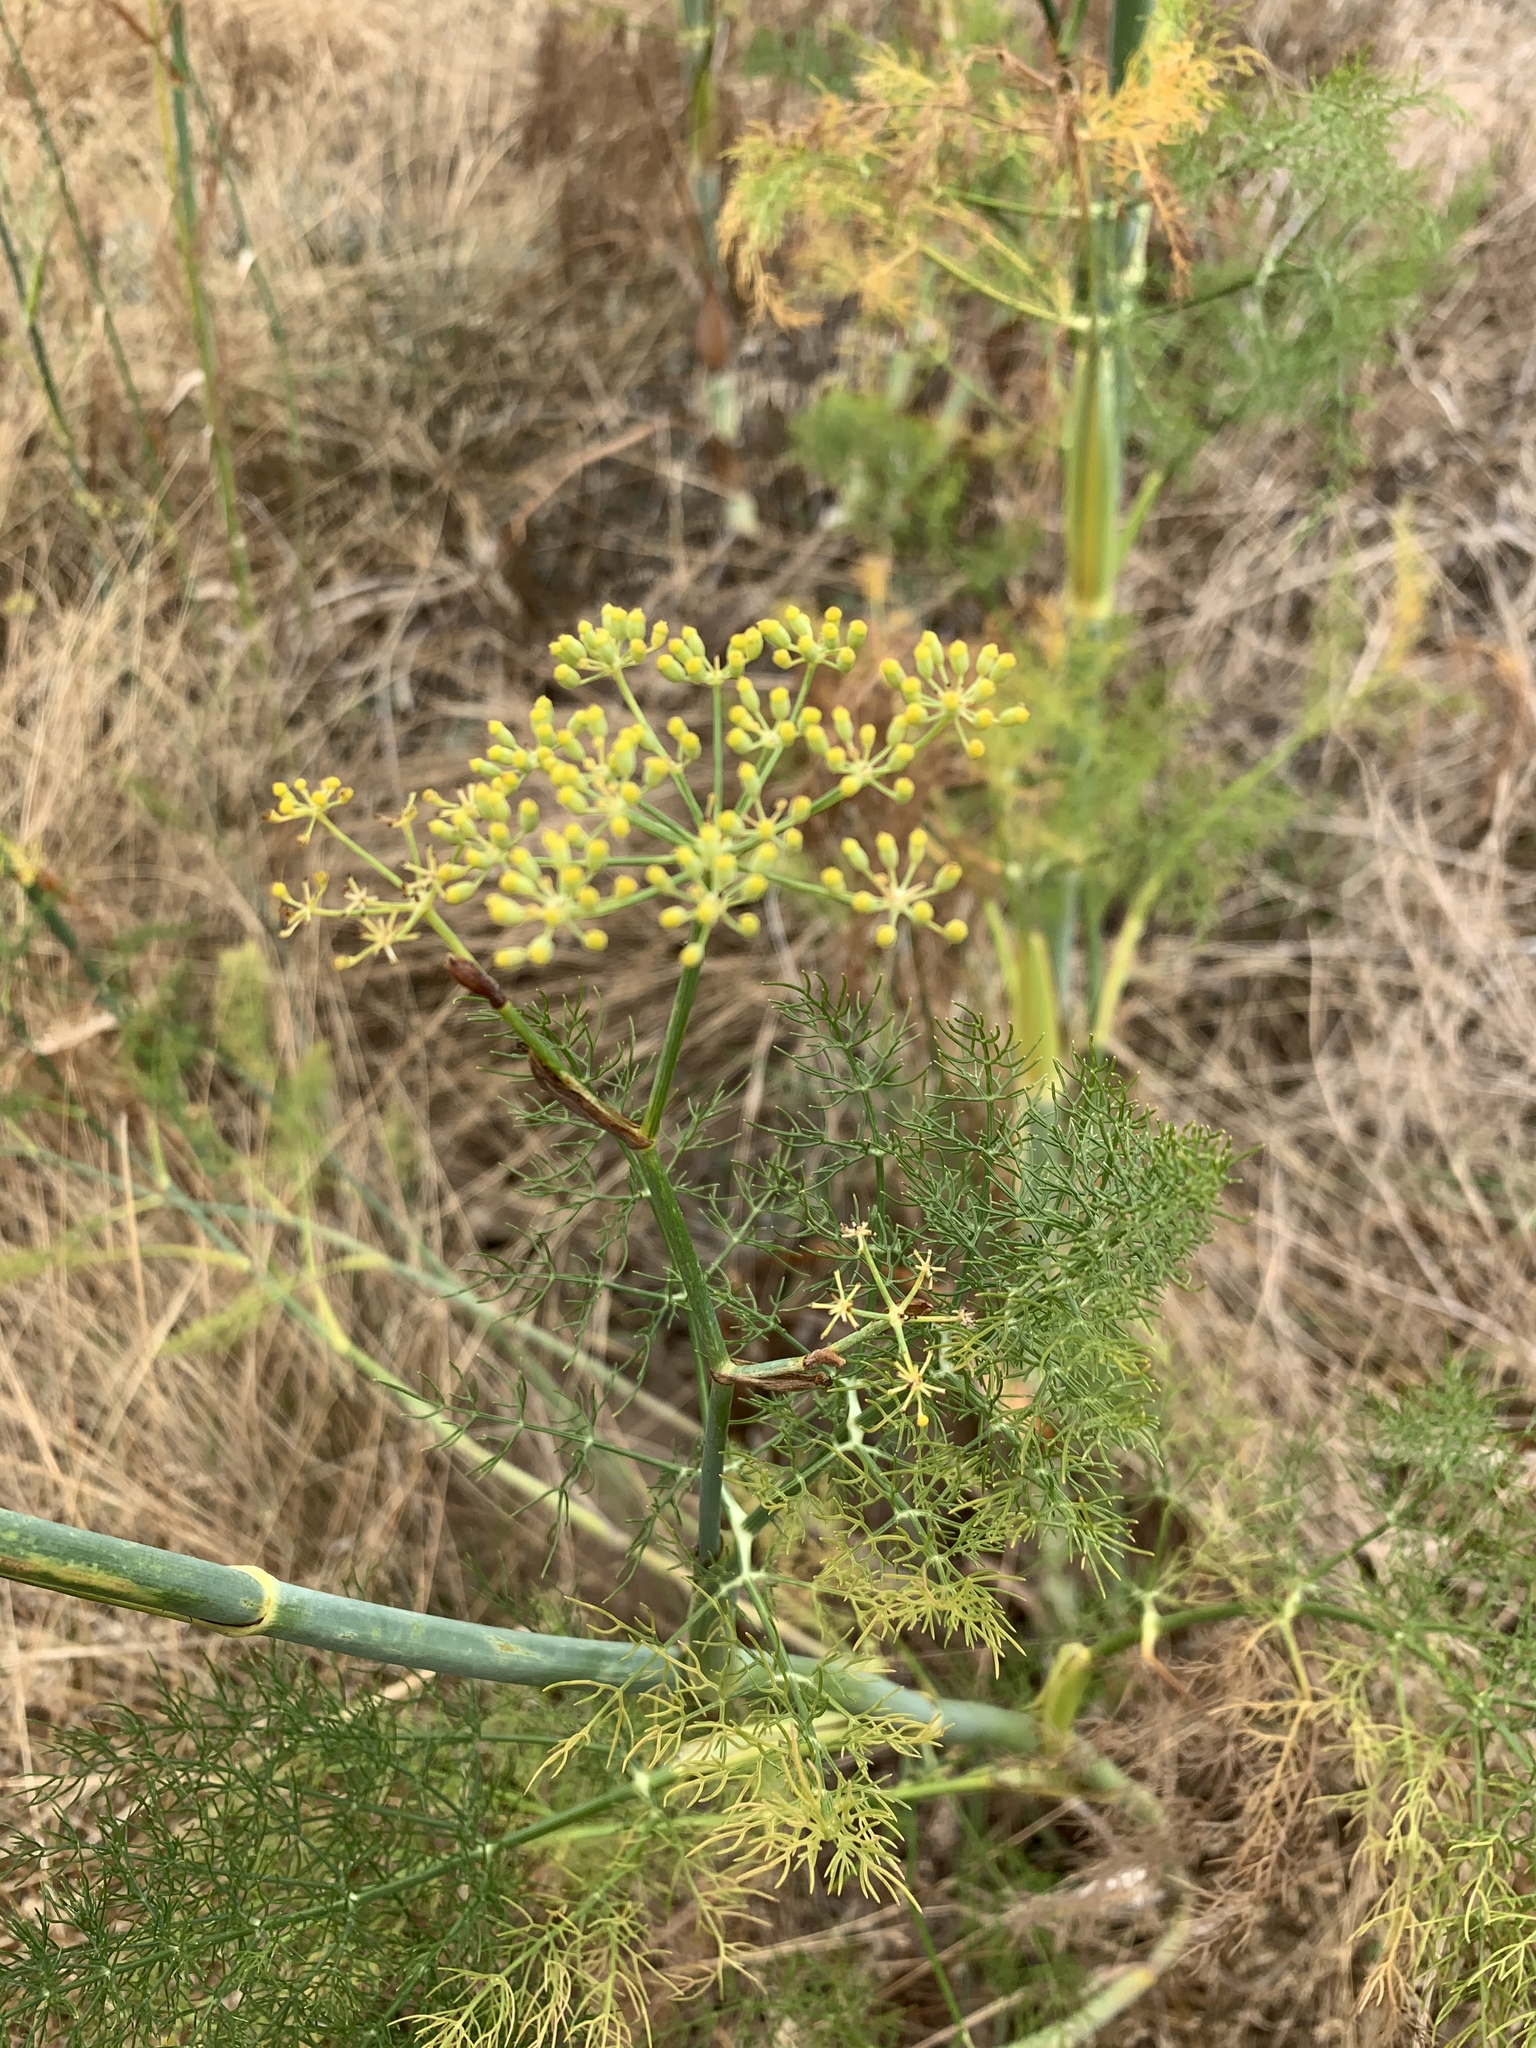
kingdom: Plantae
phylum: Tracheophyta
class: Magnoliopsida
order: Apiales
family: Apiaceae
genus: Foeniculum
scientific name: Foeniculum vulgare
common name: Fennel
